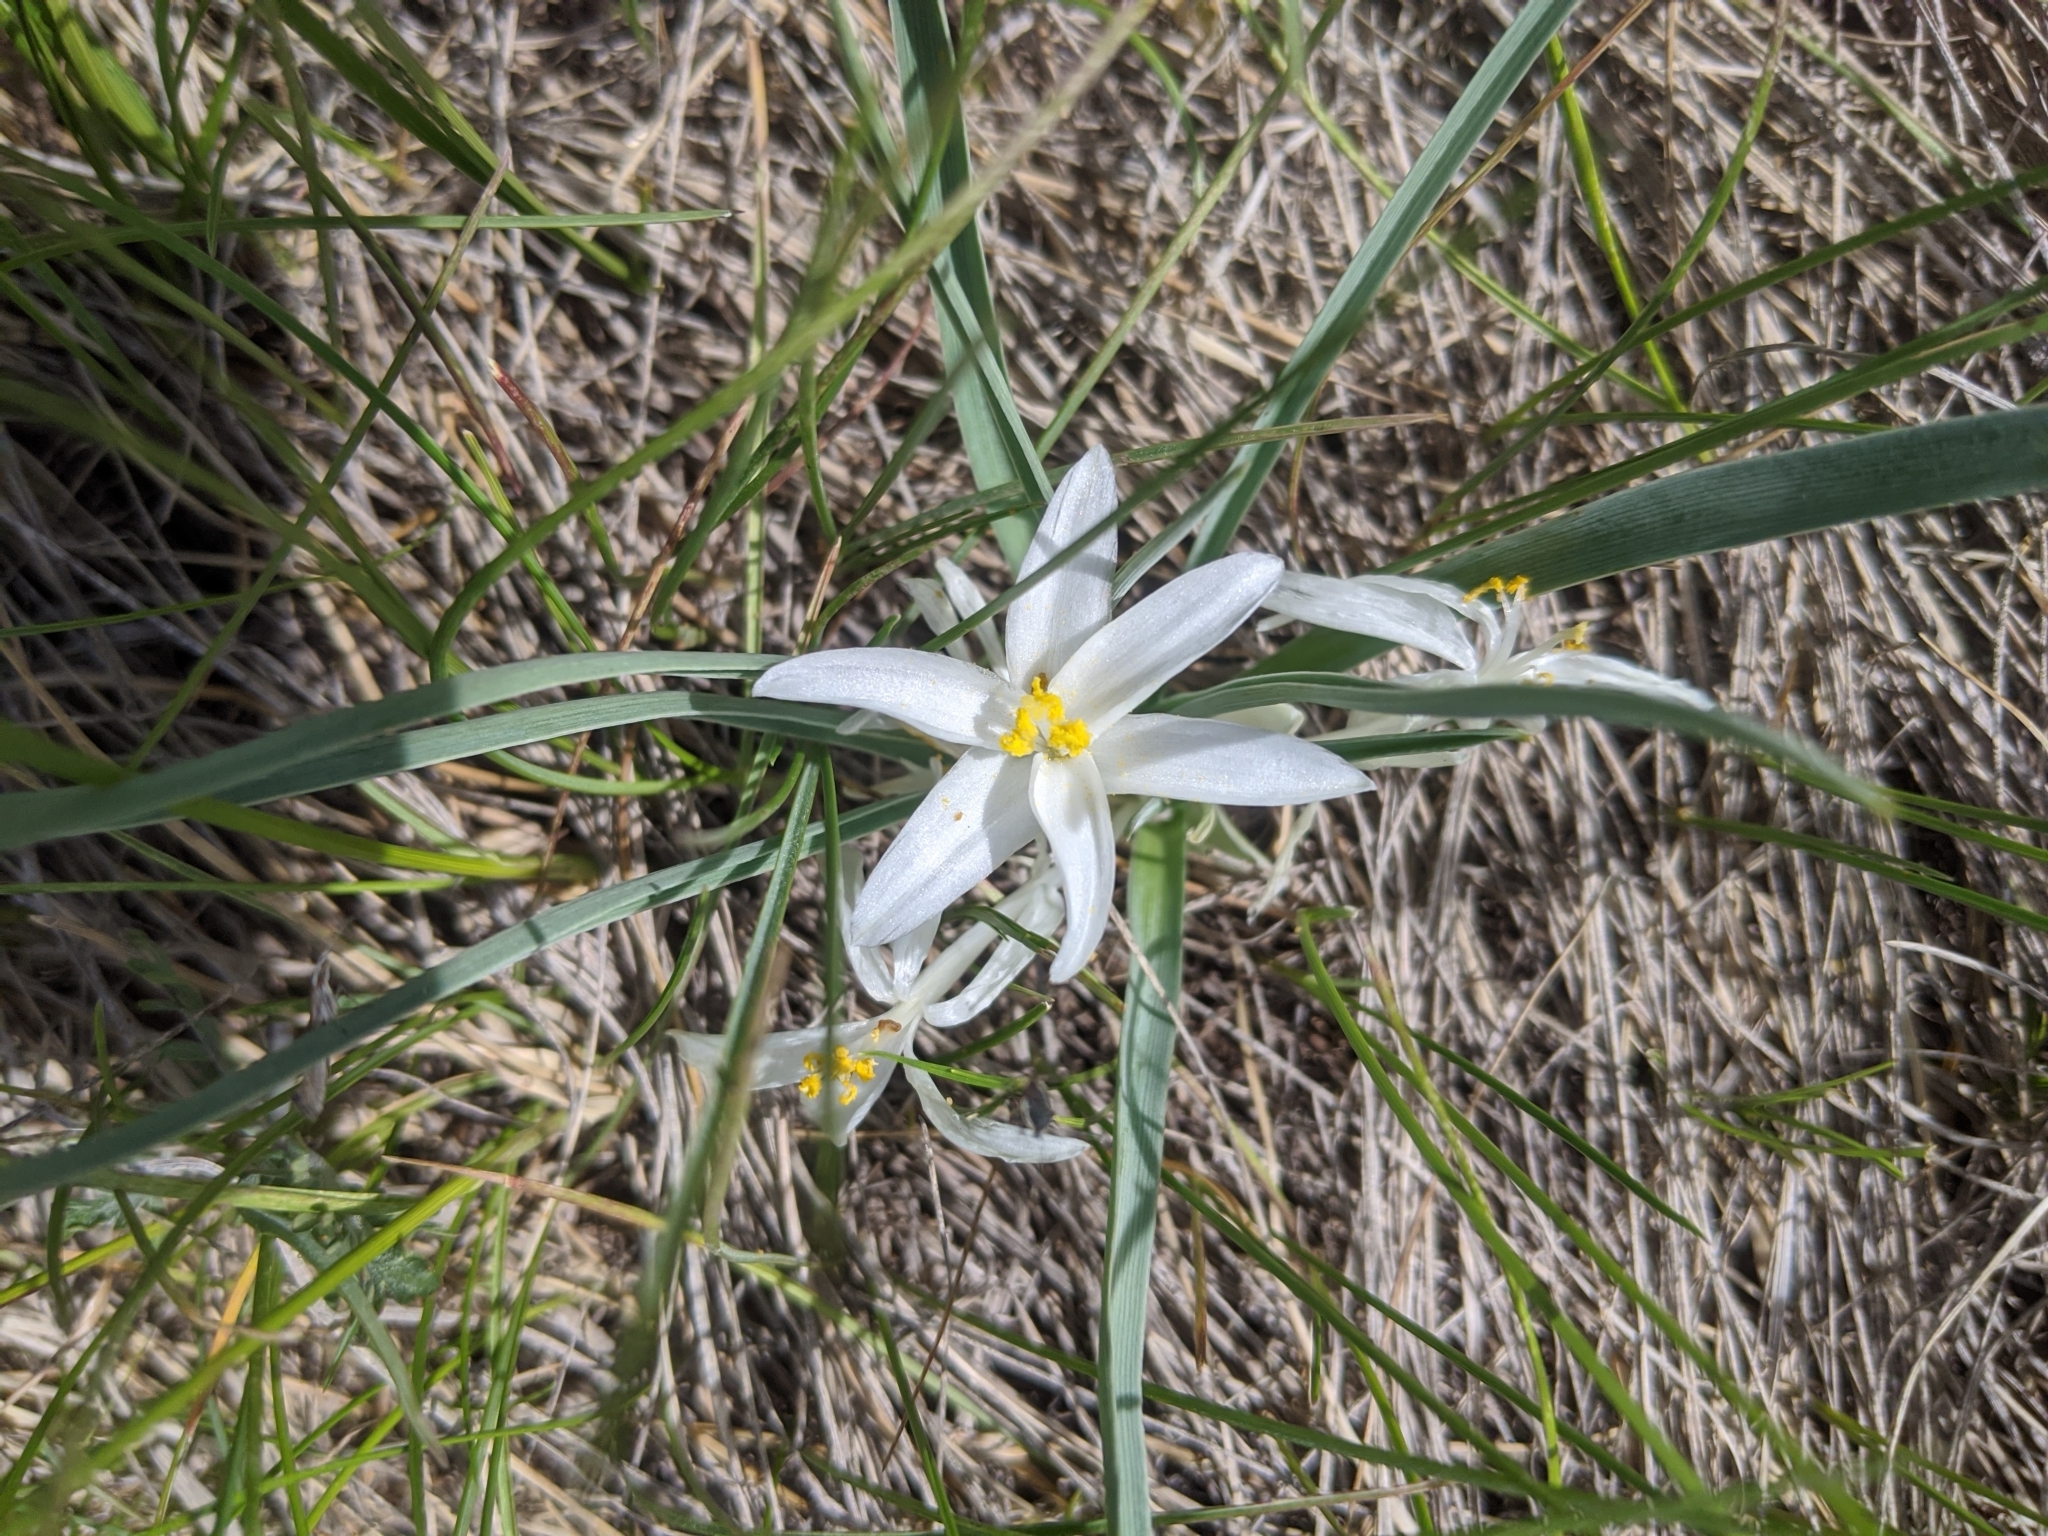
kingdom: Plantae
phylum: Tracheophyta
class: Liliopsida
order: Asparagales
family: Asparagaceae
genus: Leucocrinum
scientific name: Leucocrinum montanum
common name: Mountain-lily
